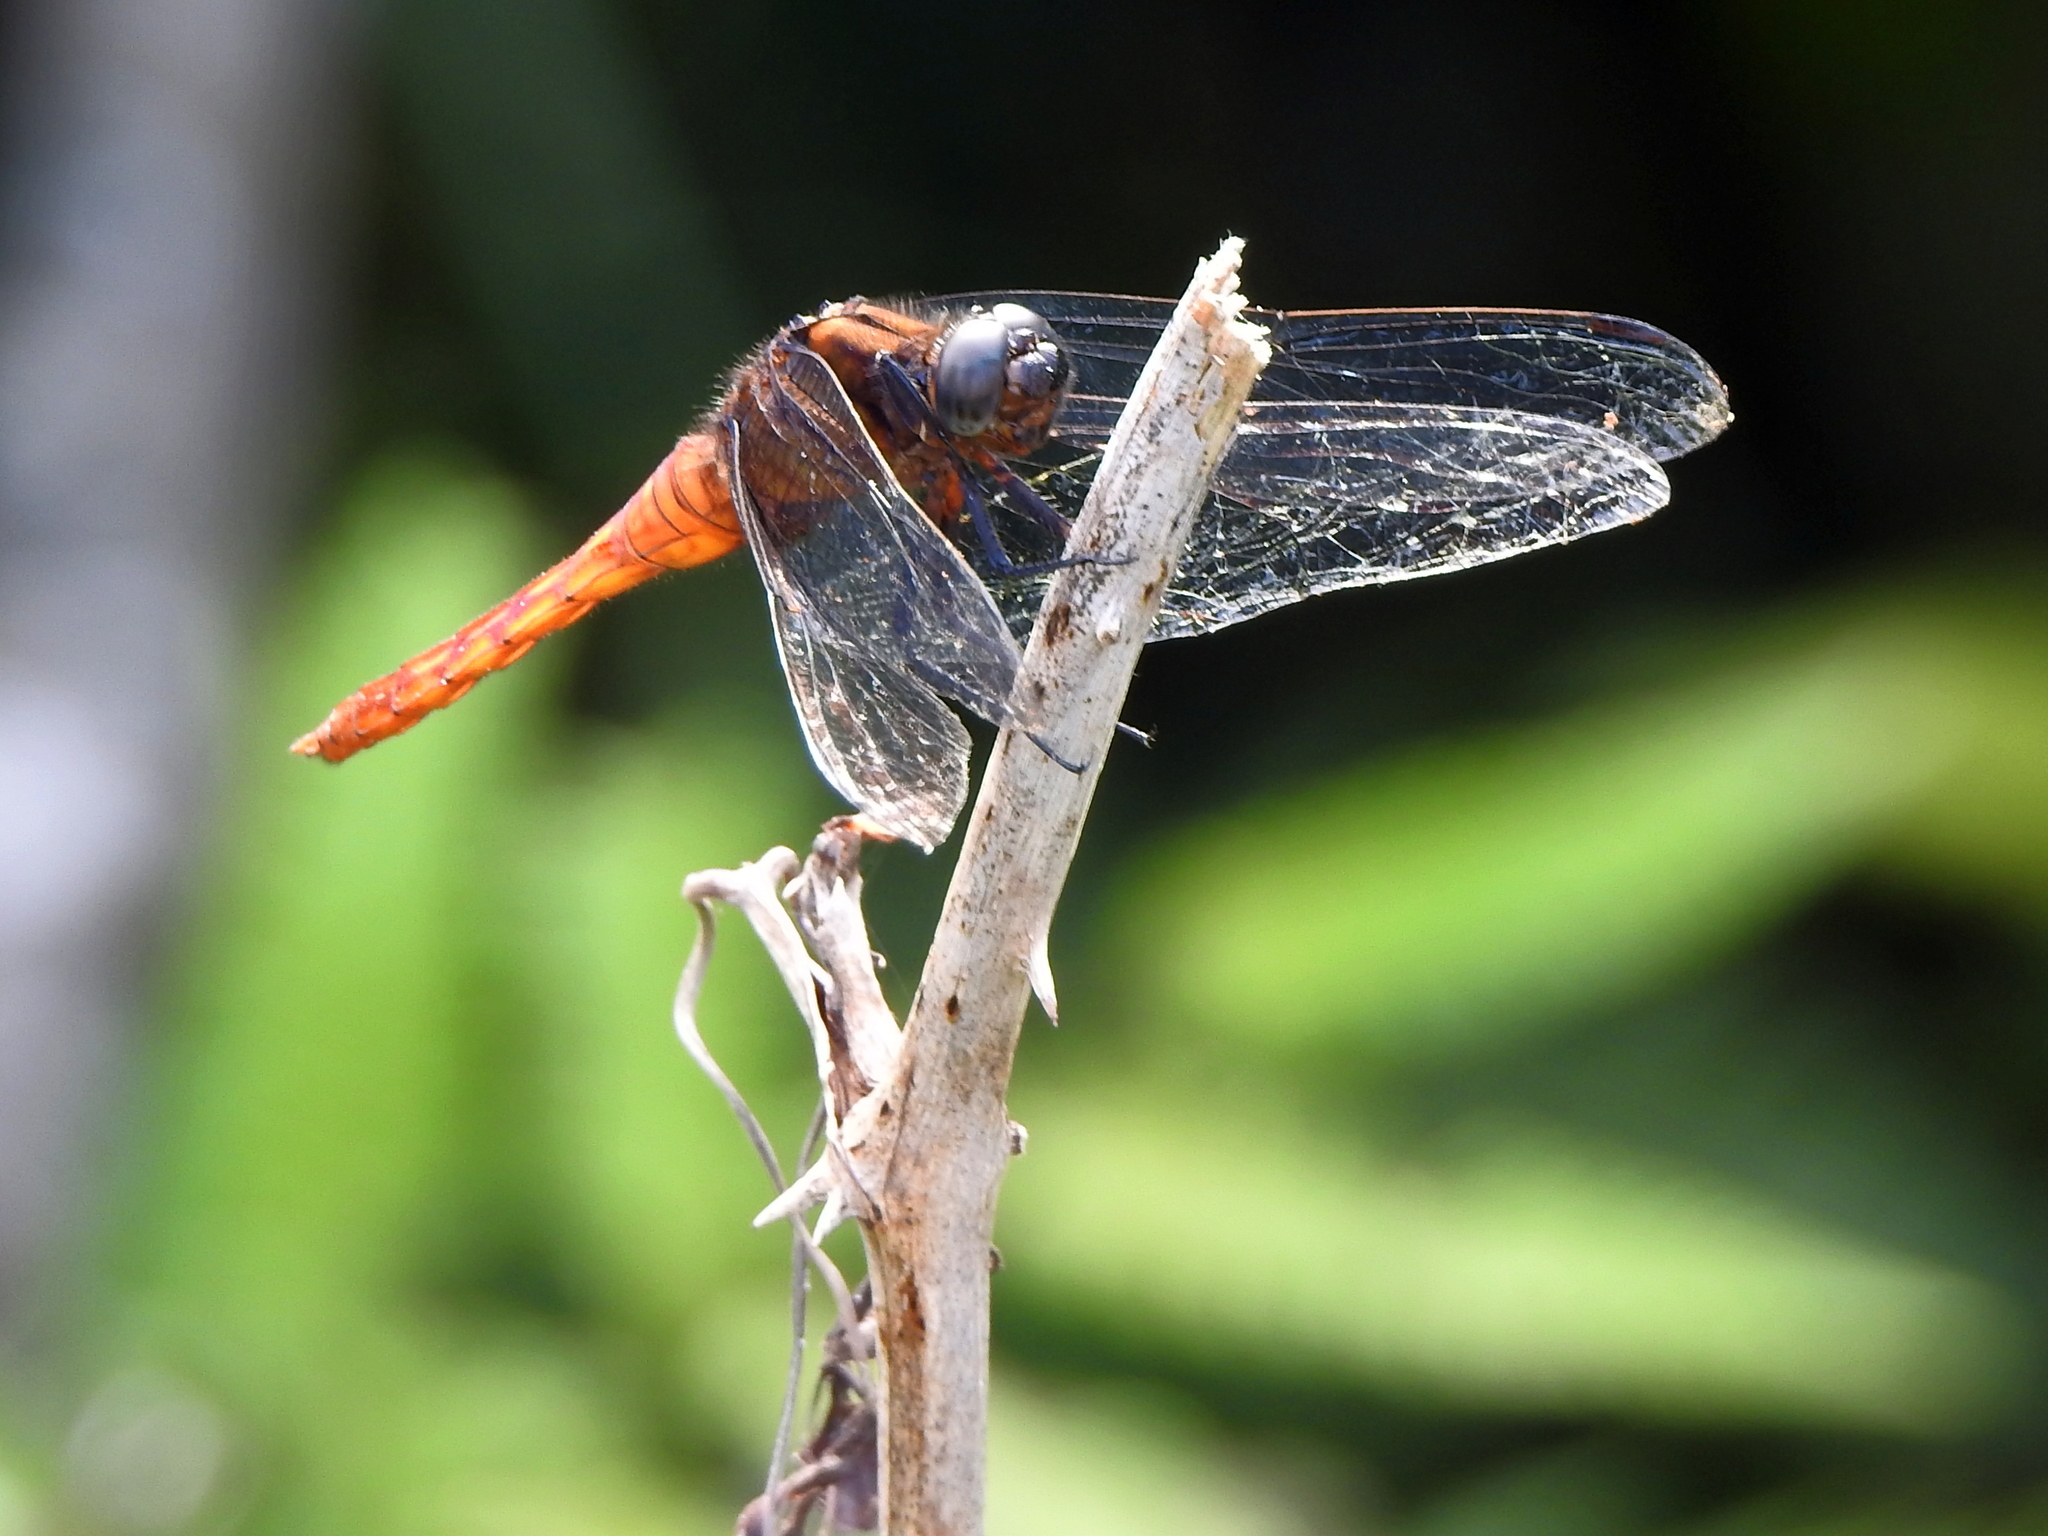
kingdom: Animalia
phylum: Arthropoda
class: Insecta
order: Odonata
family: Libellulidae
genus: Orthetrum
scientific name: Orthetrum pruinosum
